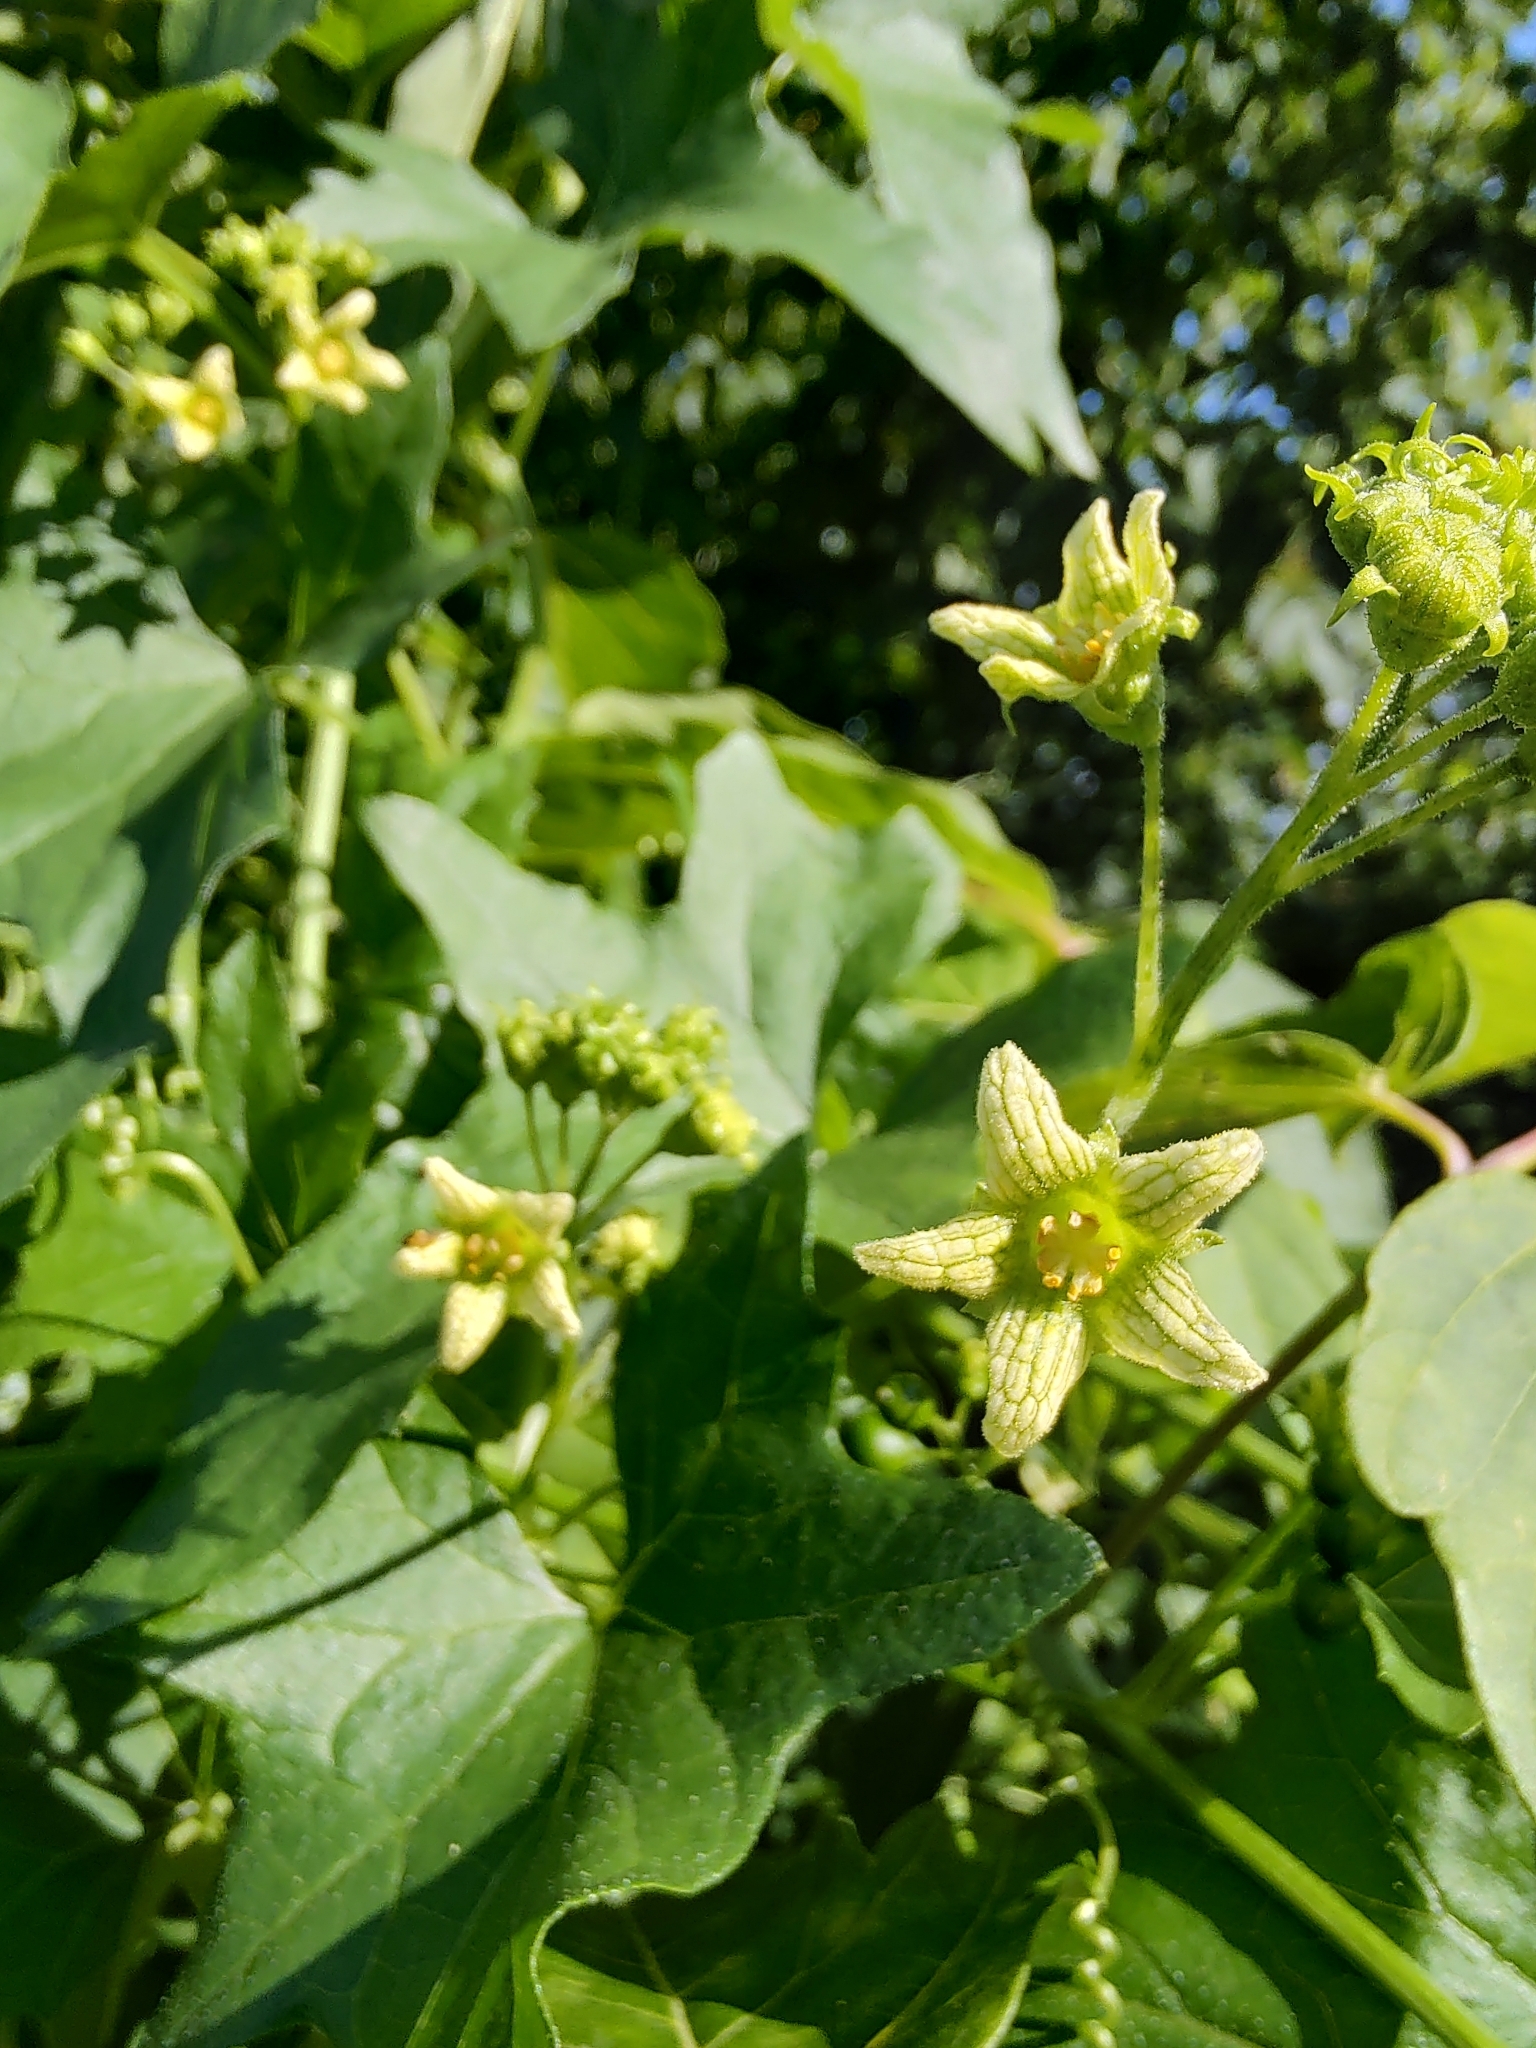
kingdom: Plantae
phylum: Tracheophyta
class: Magnoliopsida
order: Cucurbitales
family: Cucurbitaceae
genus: Bryonia
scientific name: Bryonia alba
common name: White bryony
